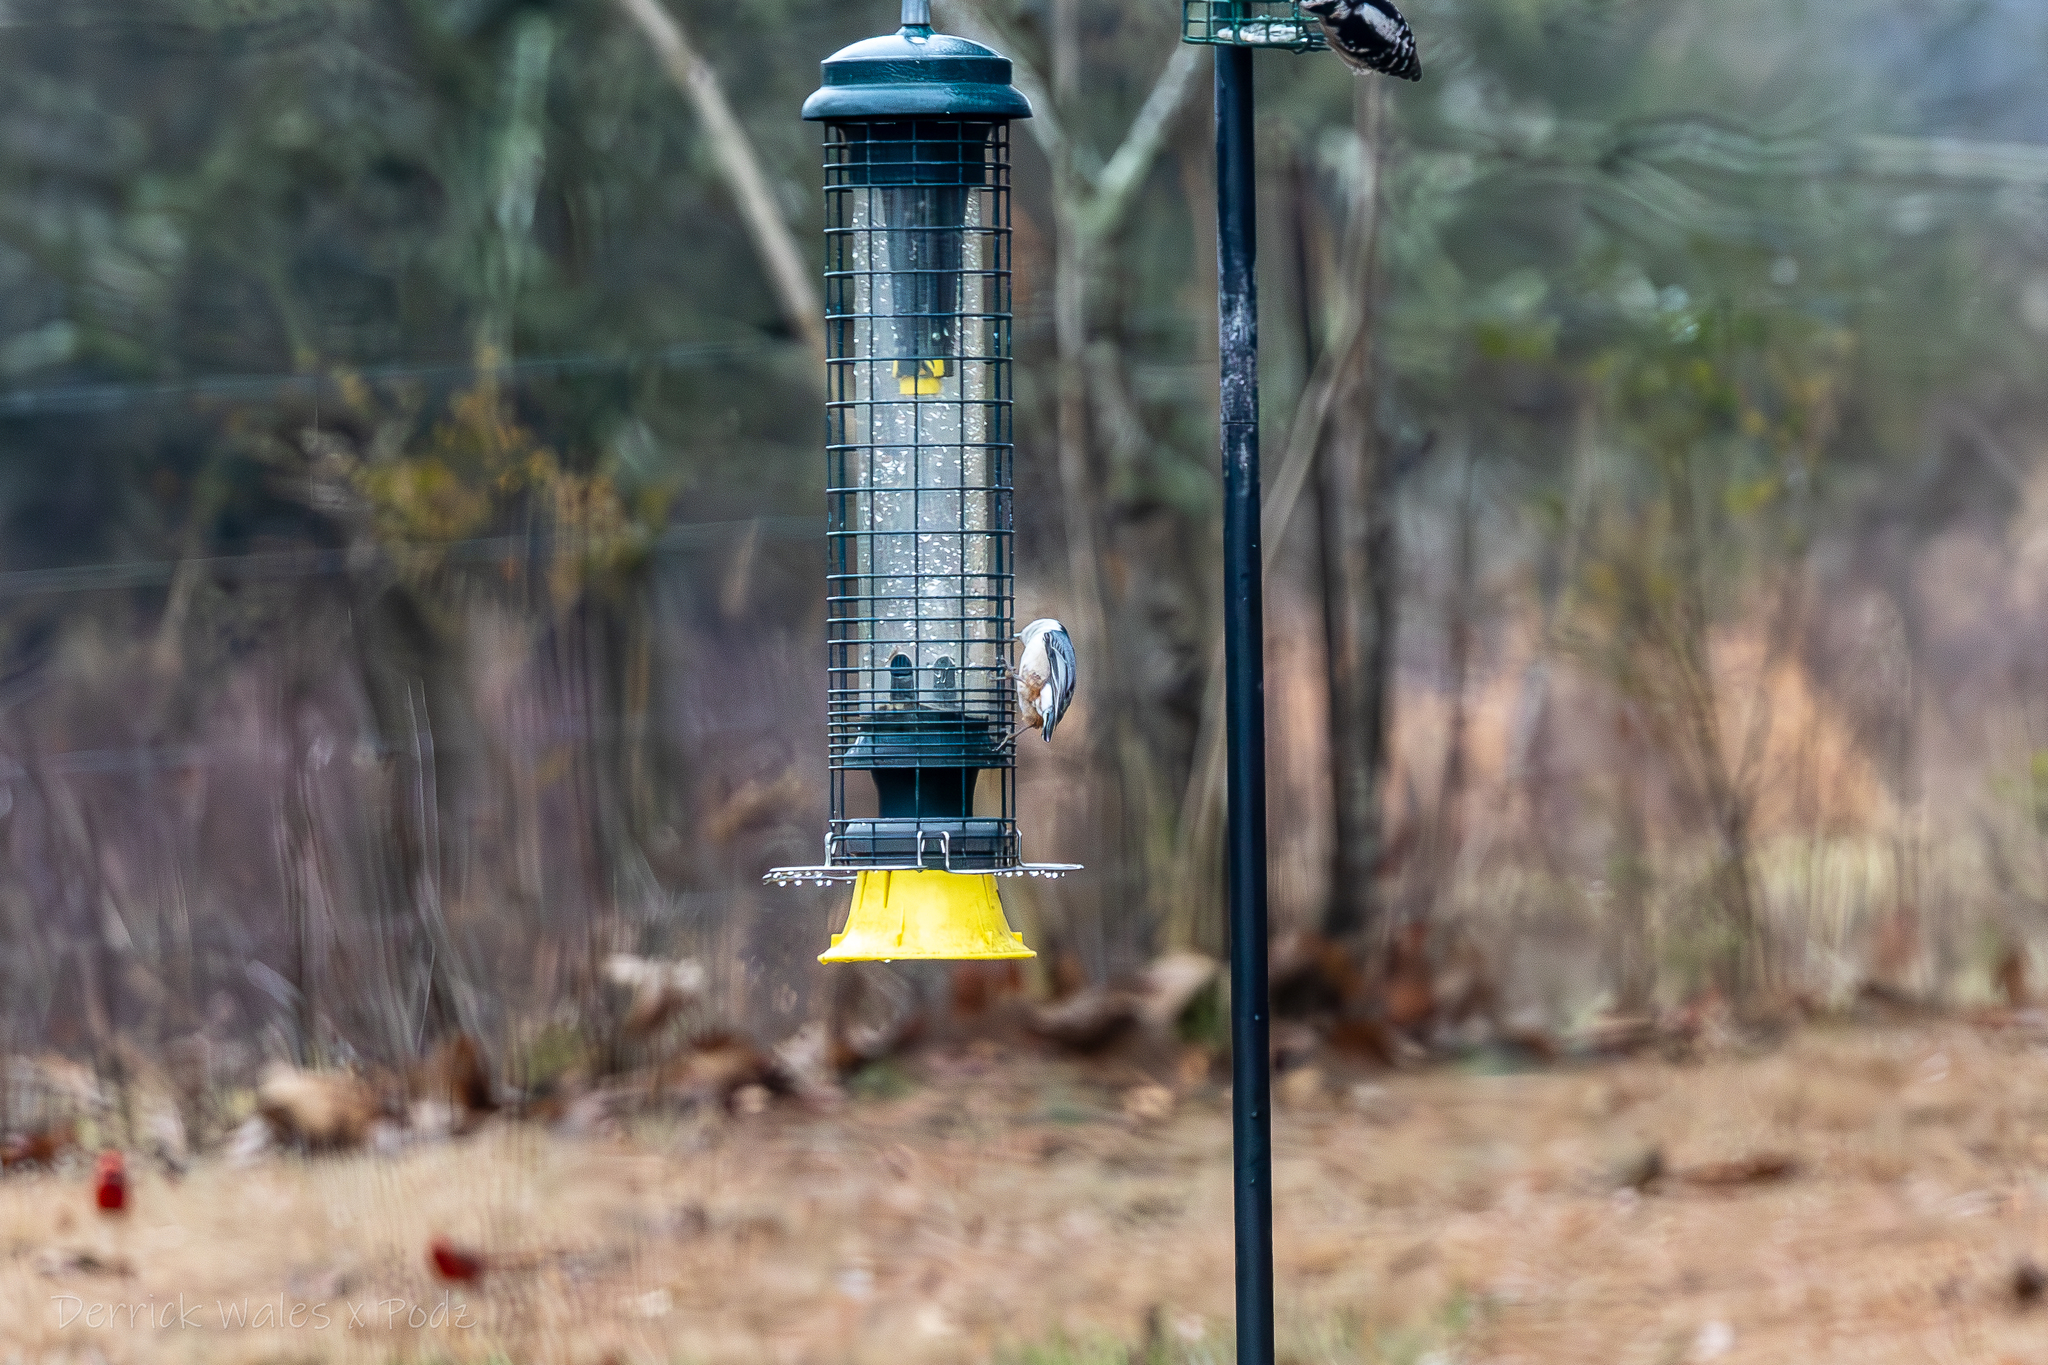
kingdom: Animalia
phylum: Chordata
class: Aves
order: Passeriformes
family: Sittidae
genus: Sitta
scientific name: Sitta carolinensis
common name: White-breasted nuthatch
